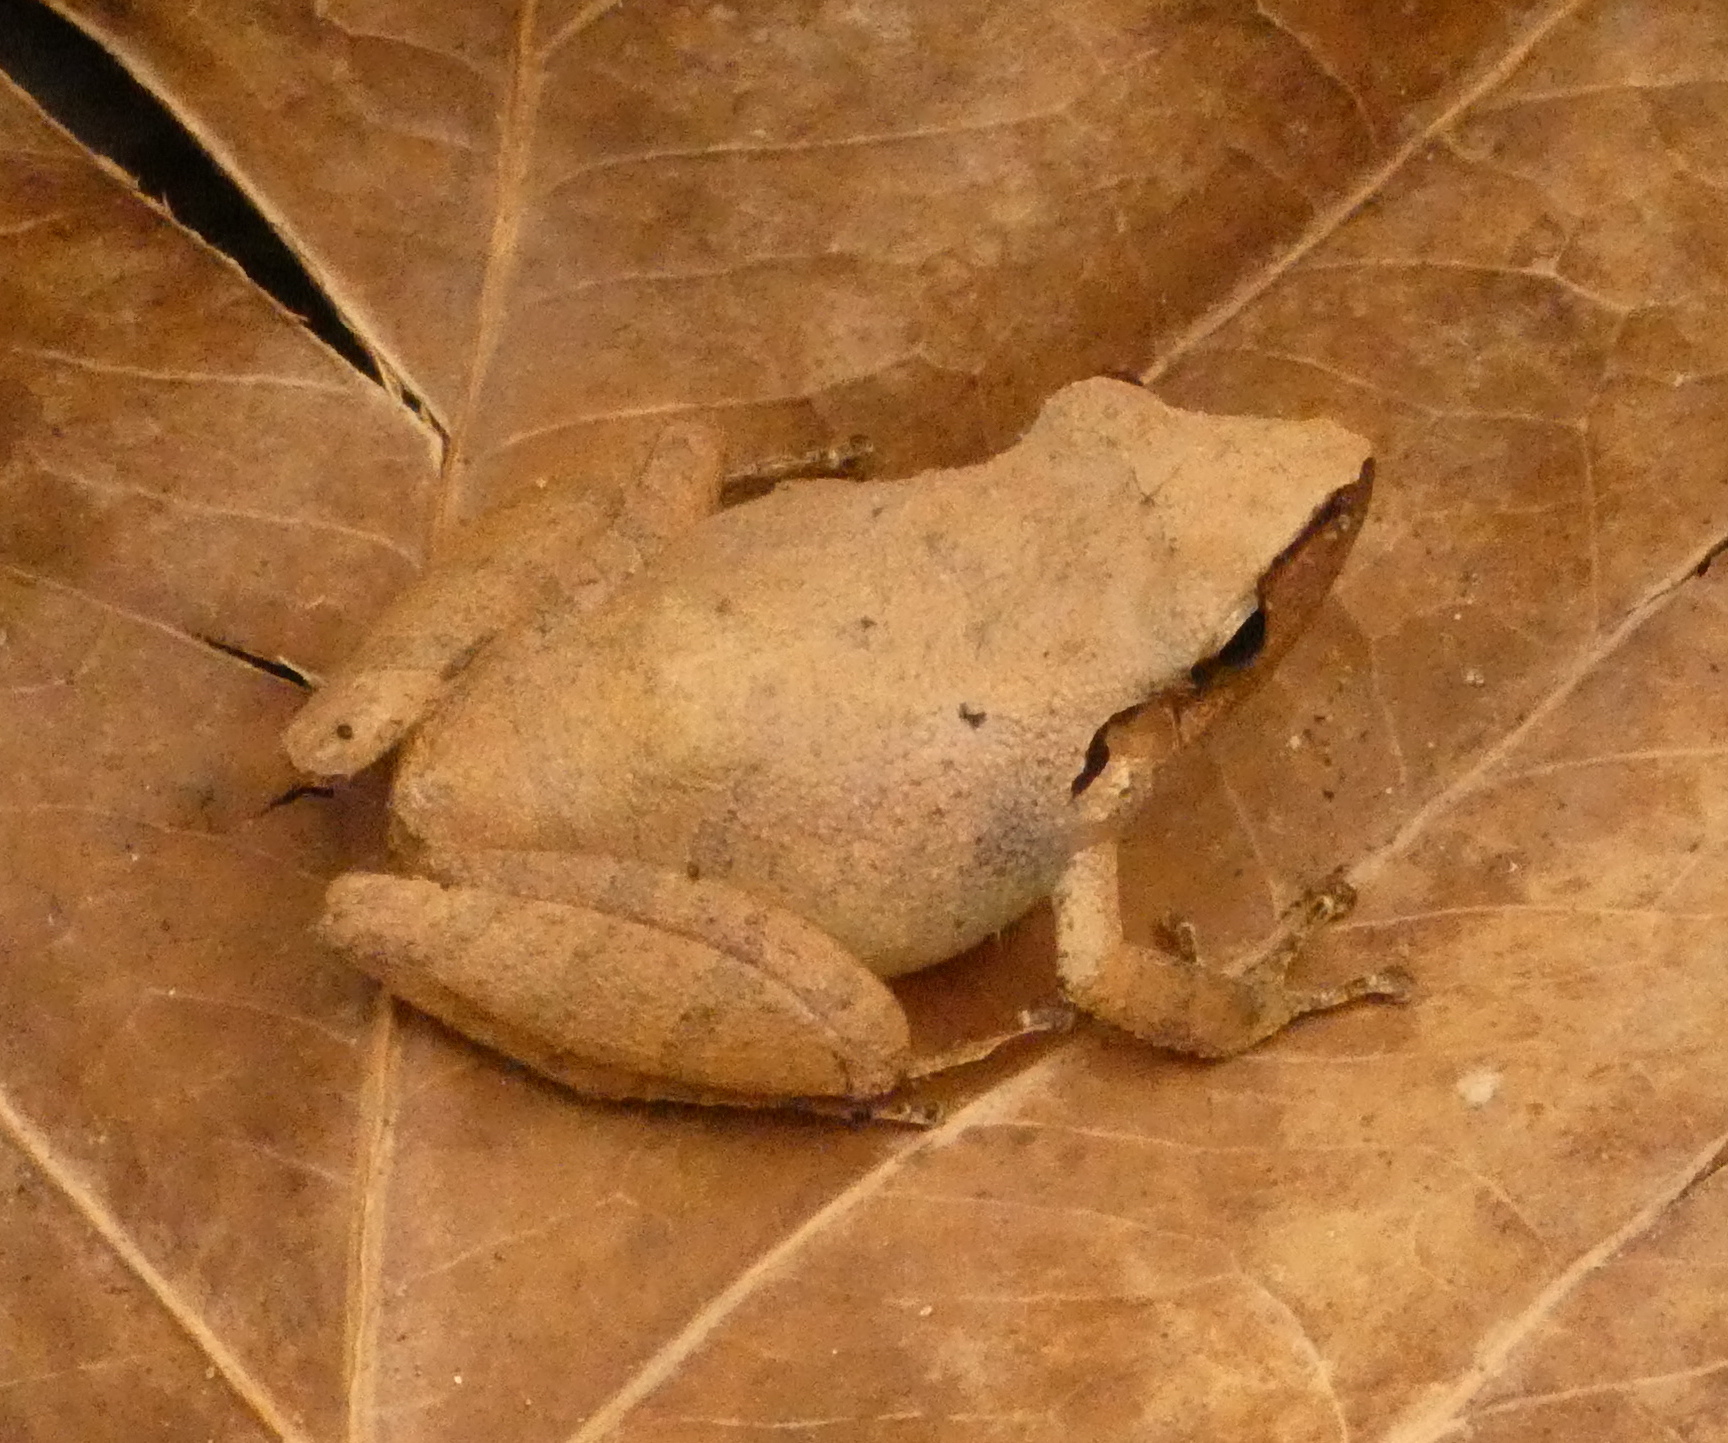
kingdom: Animalia
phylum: Chordata
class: Amphibia
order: Anura
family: Craugastoridae
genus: Pristimantis
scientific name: Pristimantis ramagii
